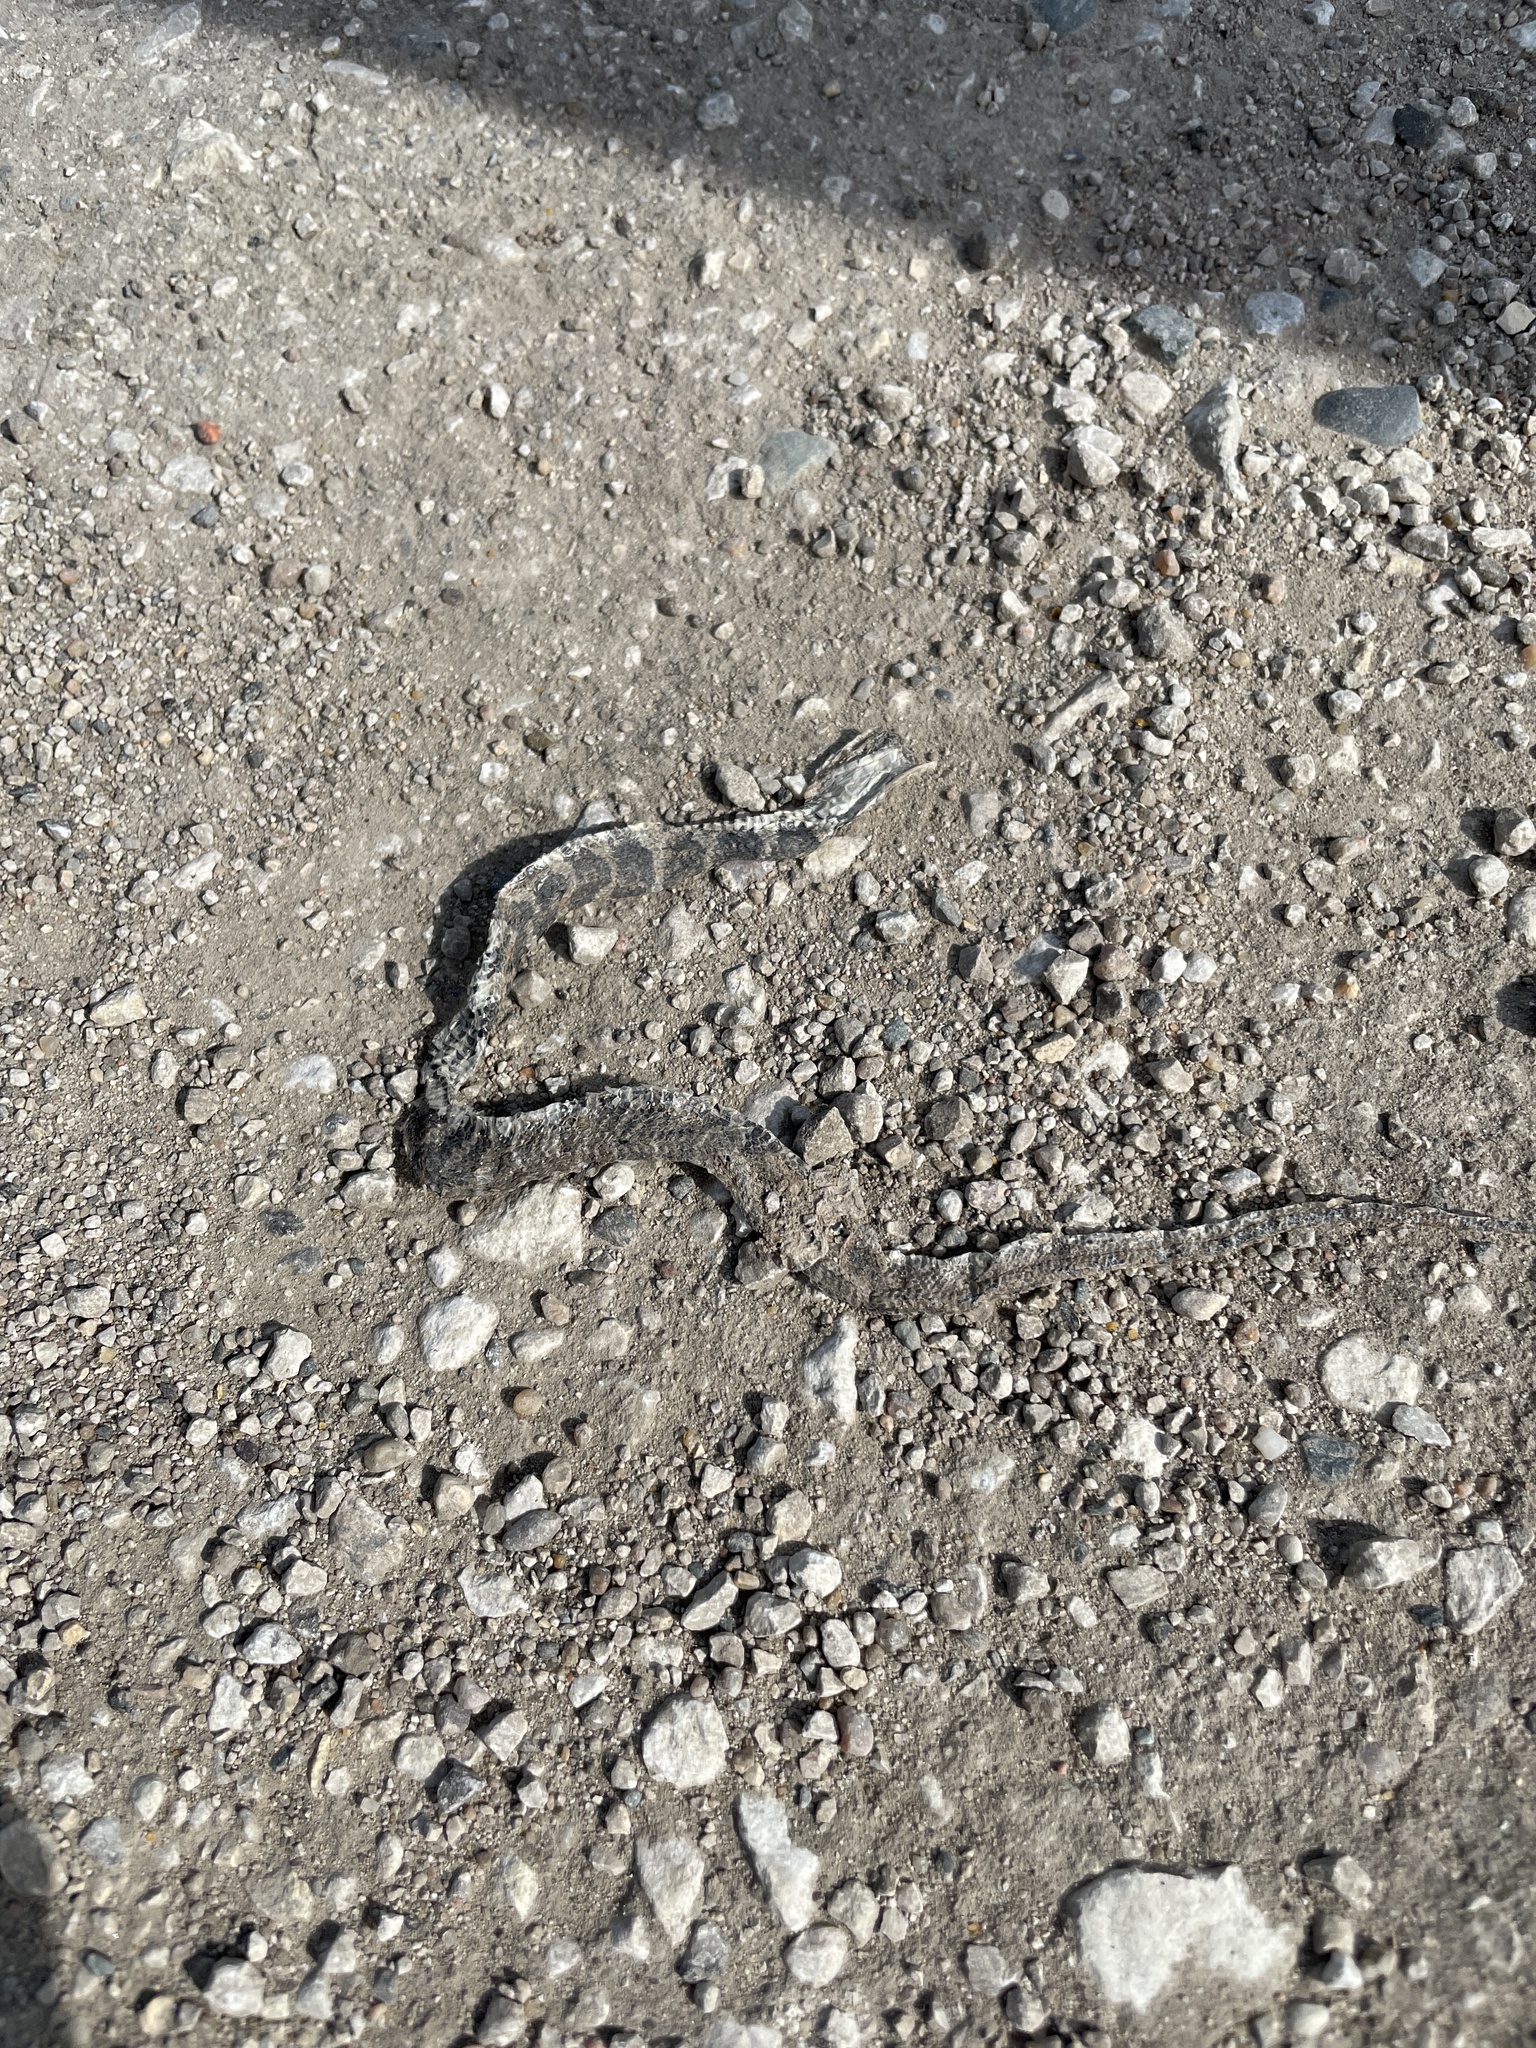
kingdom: Animalia
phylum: Chordata
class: Squamata
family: Colubridae
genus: Nerodia
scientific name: Nerodia sipedon
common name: Northern water snake
